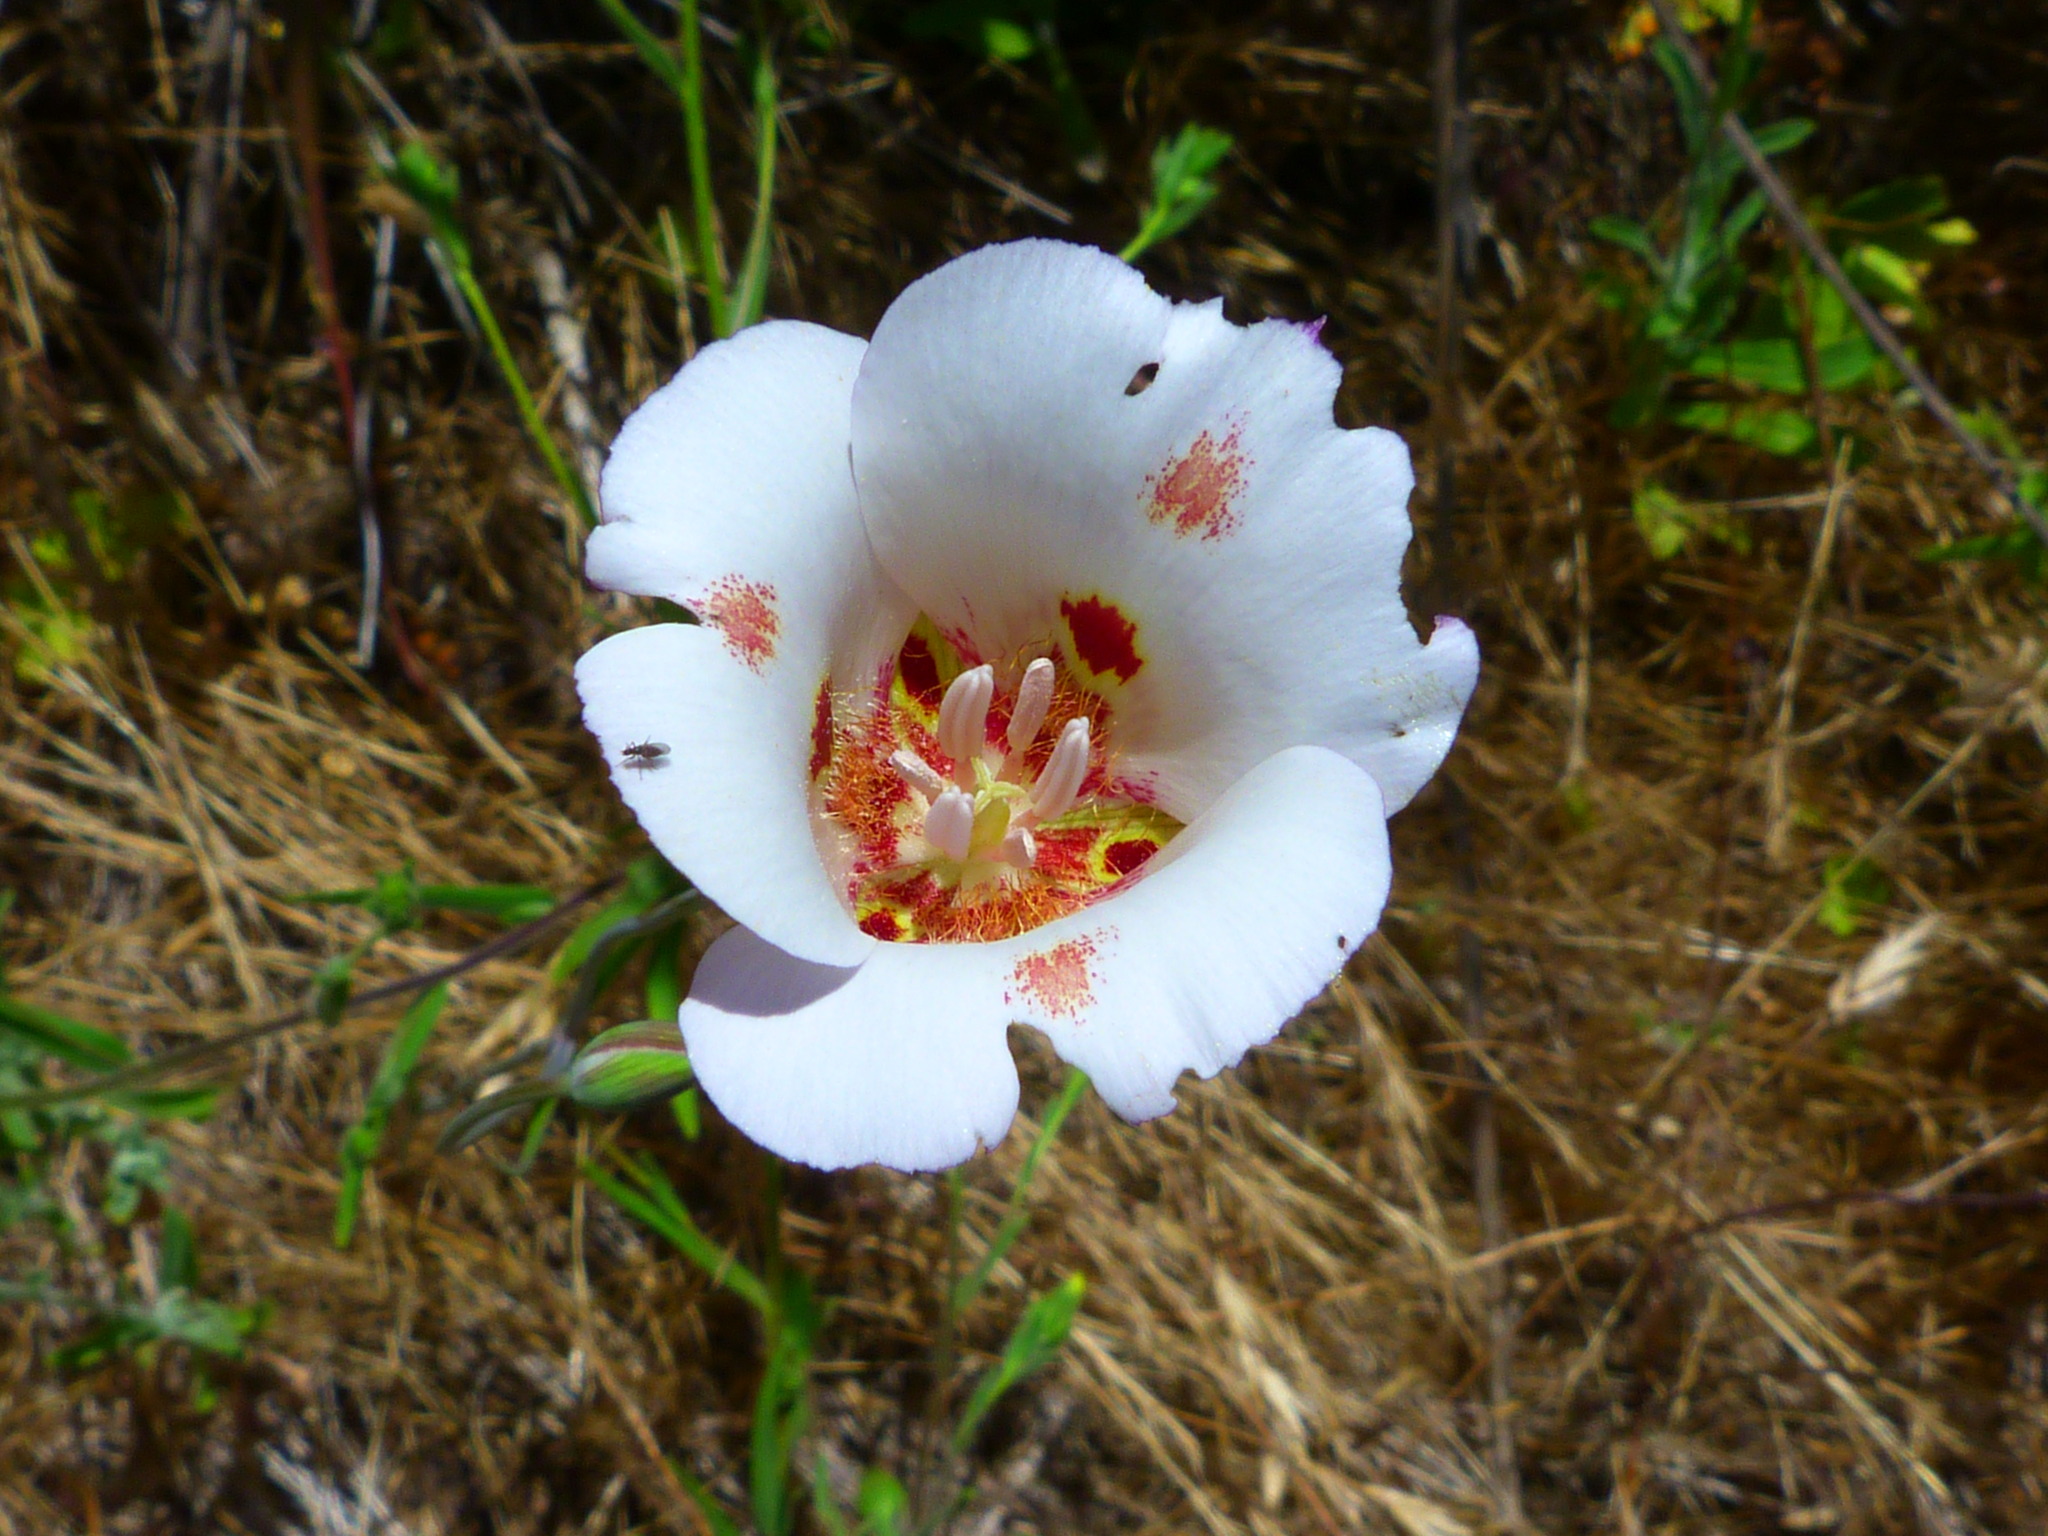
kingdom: Plantae
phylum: Tracheophyta
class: Liliopsida
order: Liliales
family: Liliaceae
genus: Calochortus
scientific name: Calochortus venustus
